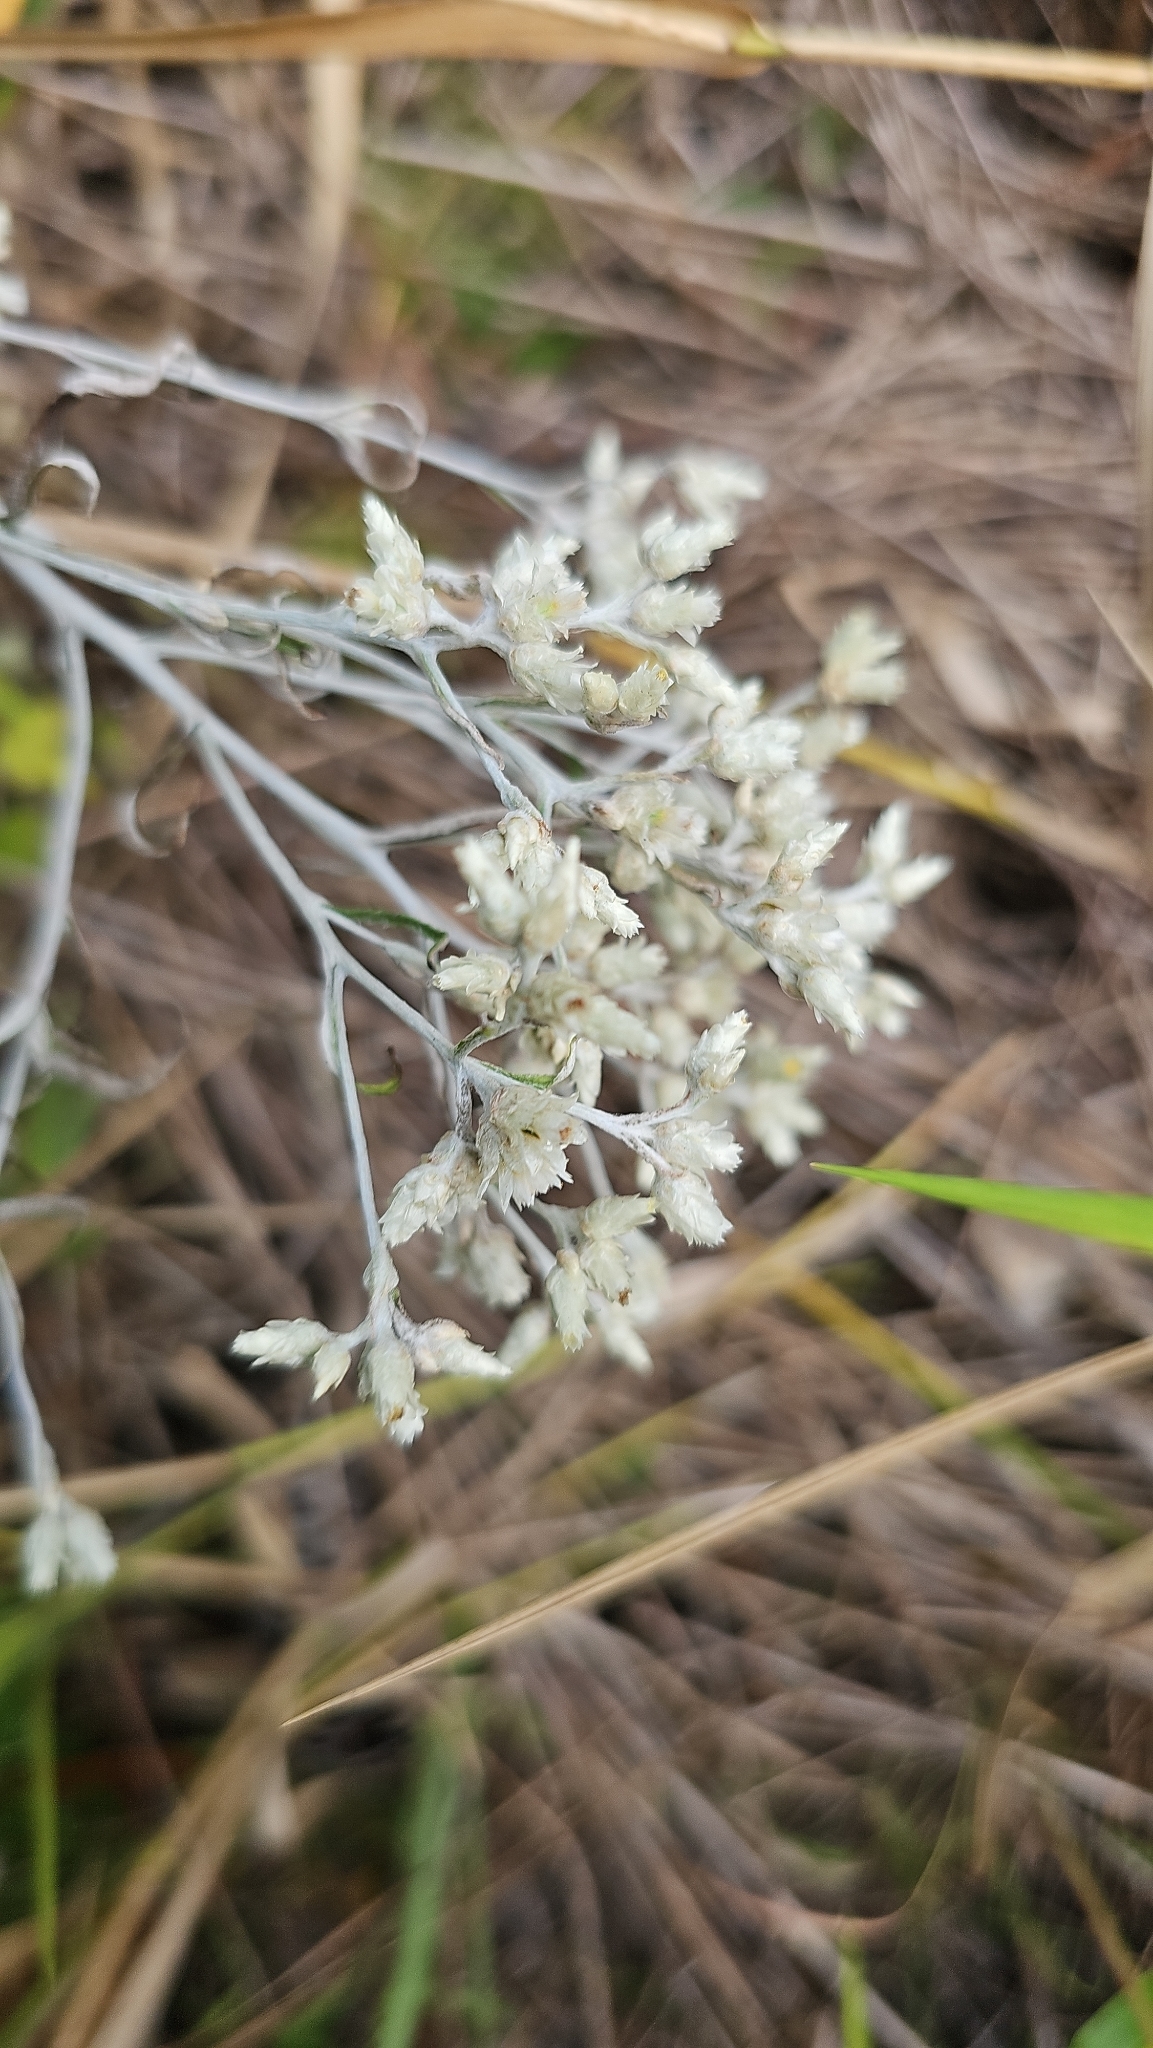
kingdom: Plantae
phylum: Tracheophyta
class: Magnoliopsida
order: Asterales
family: Asteraceae
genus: Pseudognaphalium
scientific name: Pseudognaphalium obtusifolium
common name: Eastern rabbit-tobacco
